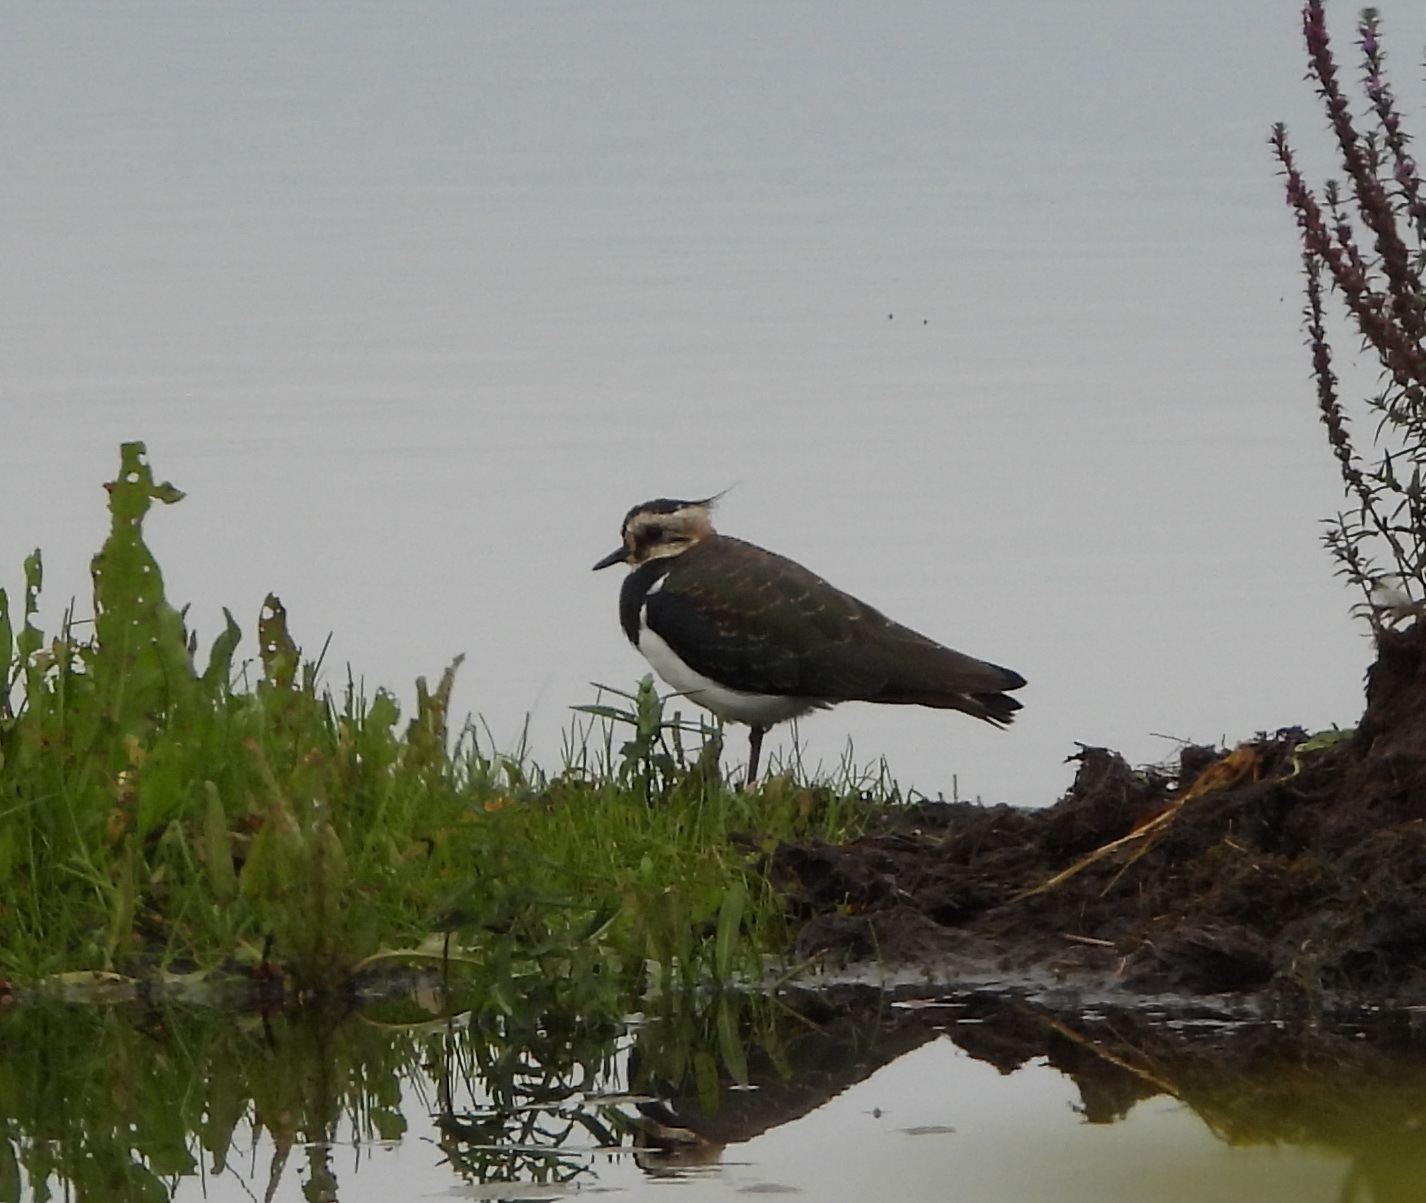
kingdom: Animalia
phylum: Chordata
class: Aves
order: Charadriiformes
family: Charadriidae
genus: Vanellus
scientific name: Vanellus vanellus
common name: Northern lapwing
